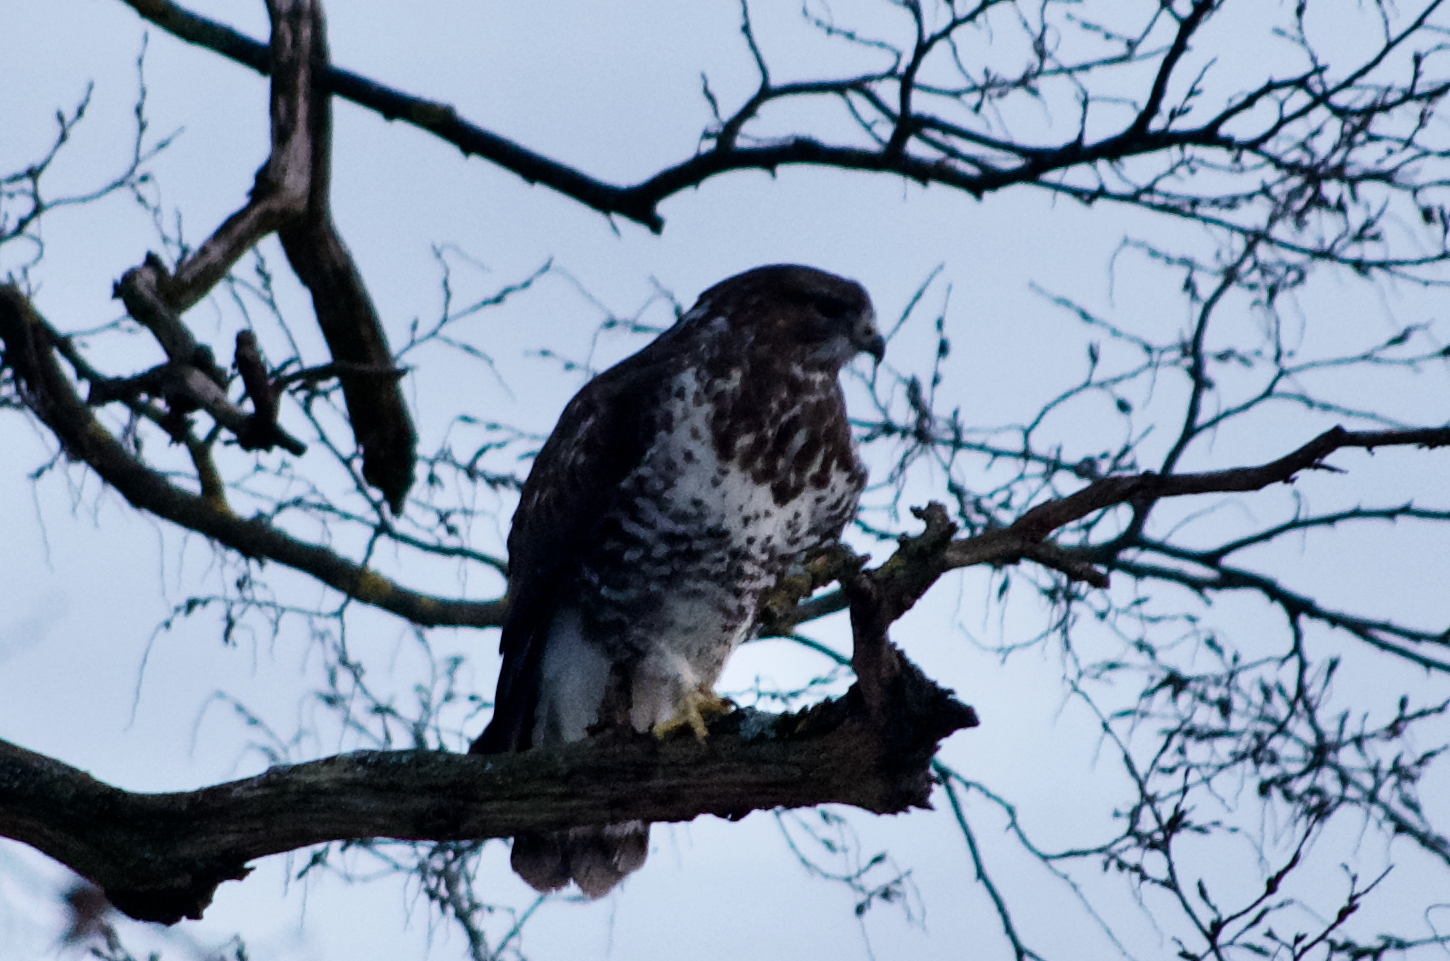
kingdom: Animalia
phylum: Chordata
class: Aves
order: Accipitriformes
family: Accipitridae
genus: Buteo
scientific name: Buteo buteo
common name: Common buzzard
